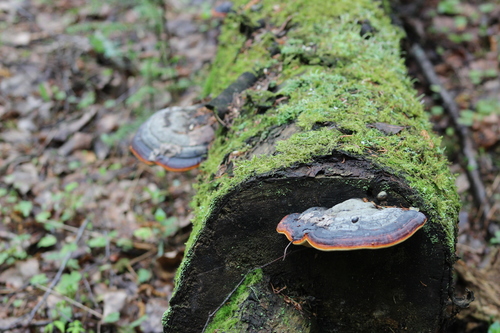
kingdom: Fungi
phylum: Basidiomycota
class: Agaricomycetes
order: Polyporales
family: Fomitopsidaceae
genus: Fomitopsis
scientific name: Fomitopsis pinicola
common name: Red-belted bracket
